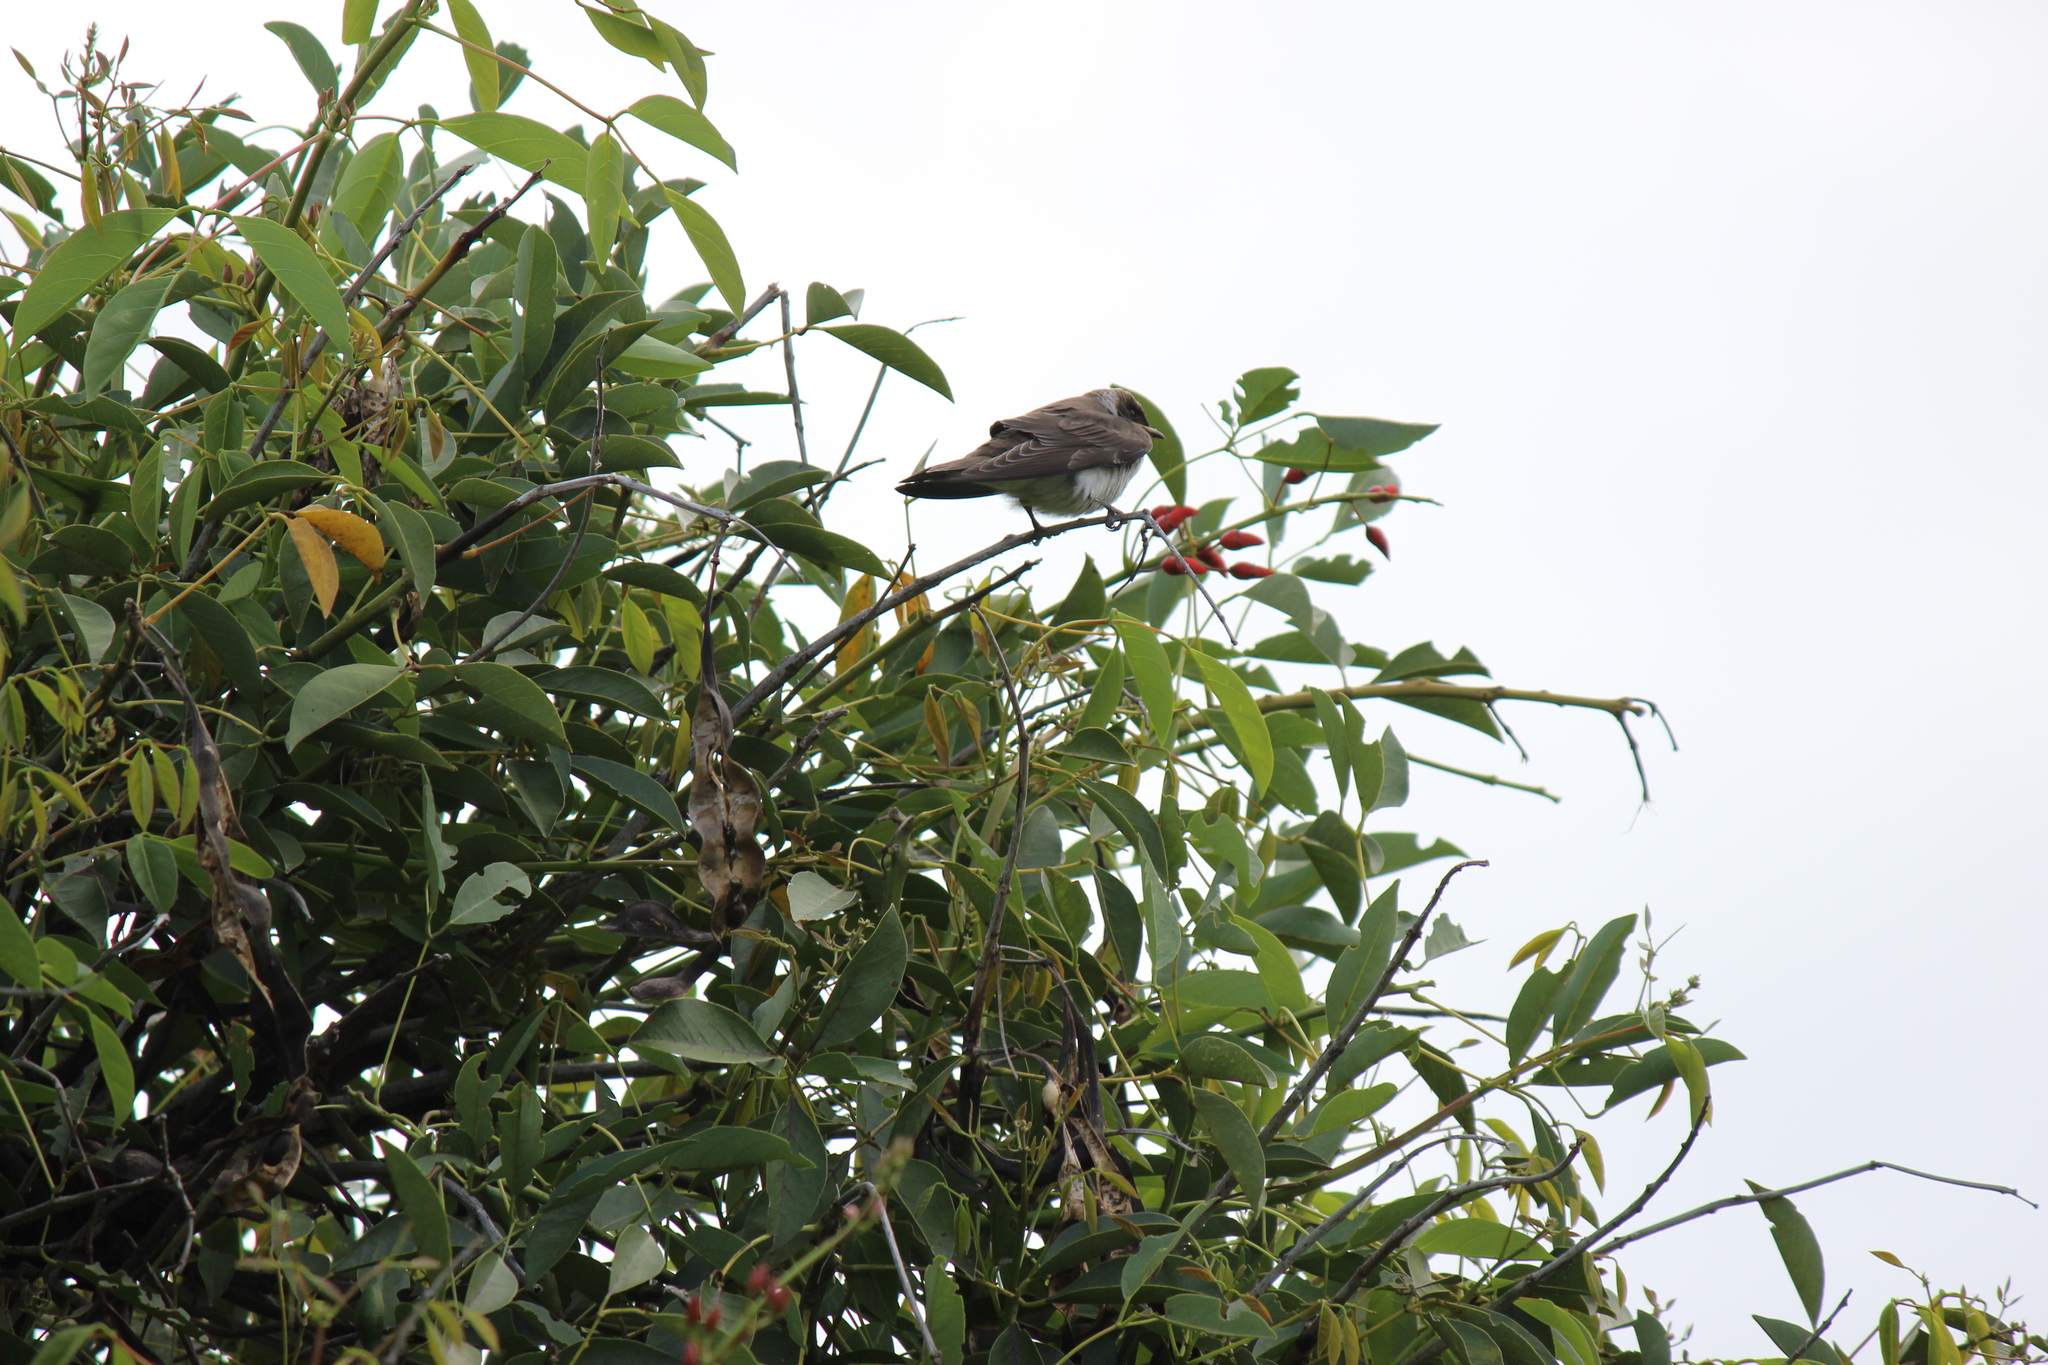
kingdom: Animalia
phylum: Chordata
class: Aves
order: Passeriformes
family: Hirundinidae
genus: Progne
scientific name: Progne tapera
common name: Brown-chested martin
